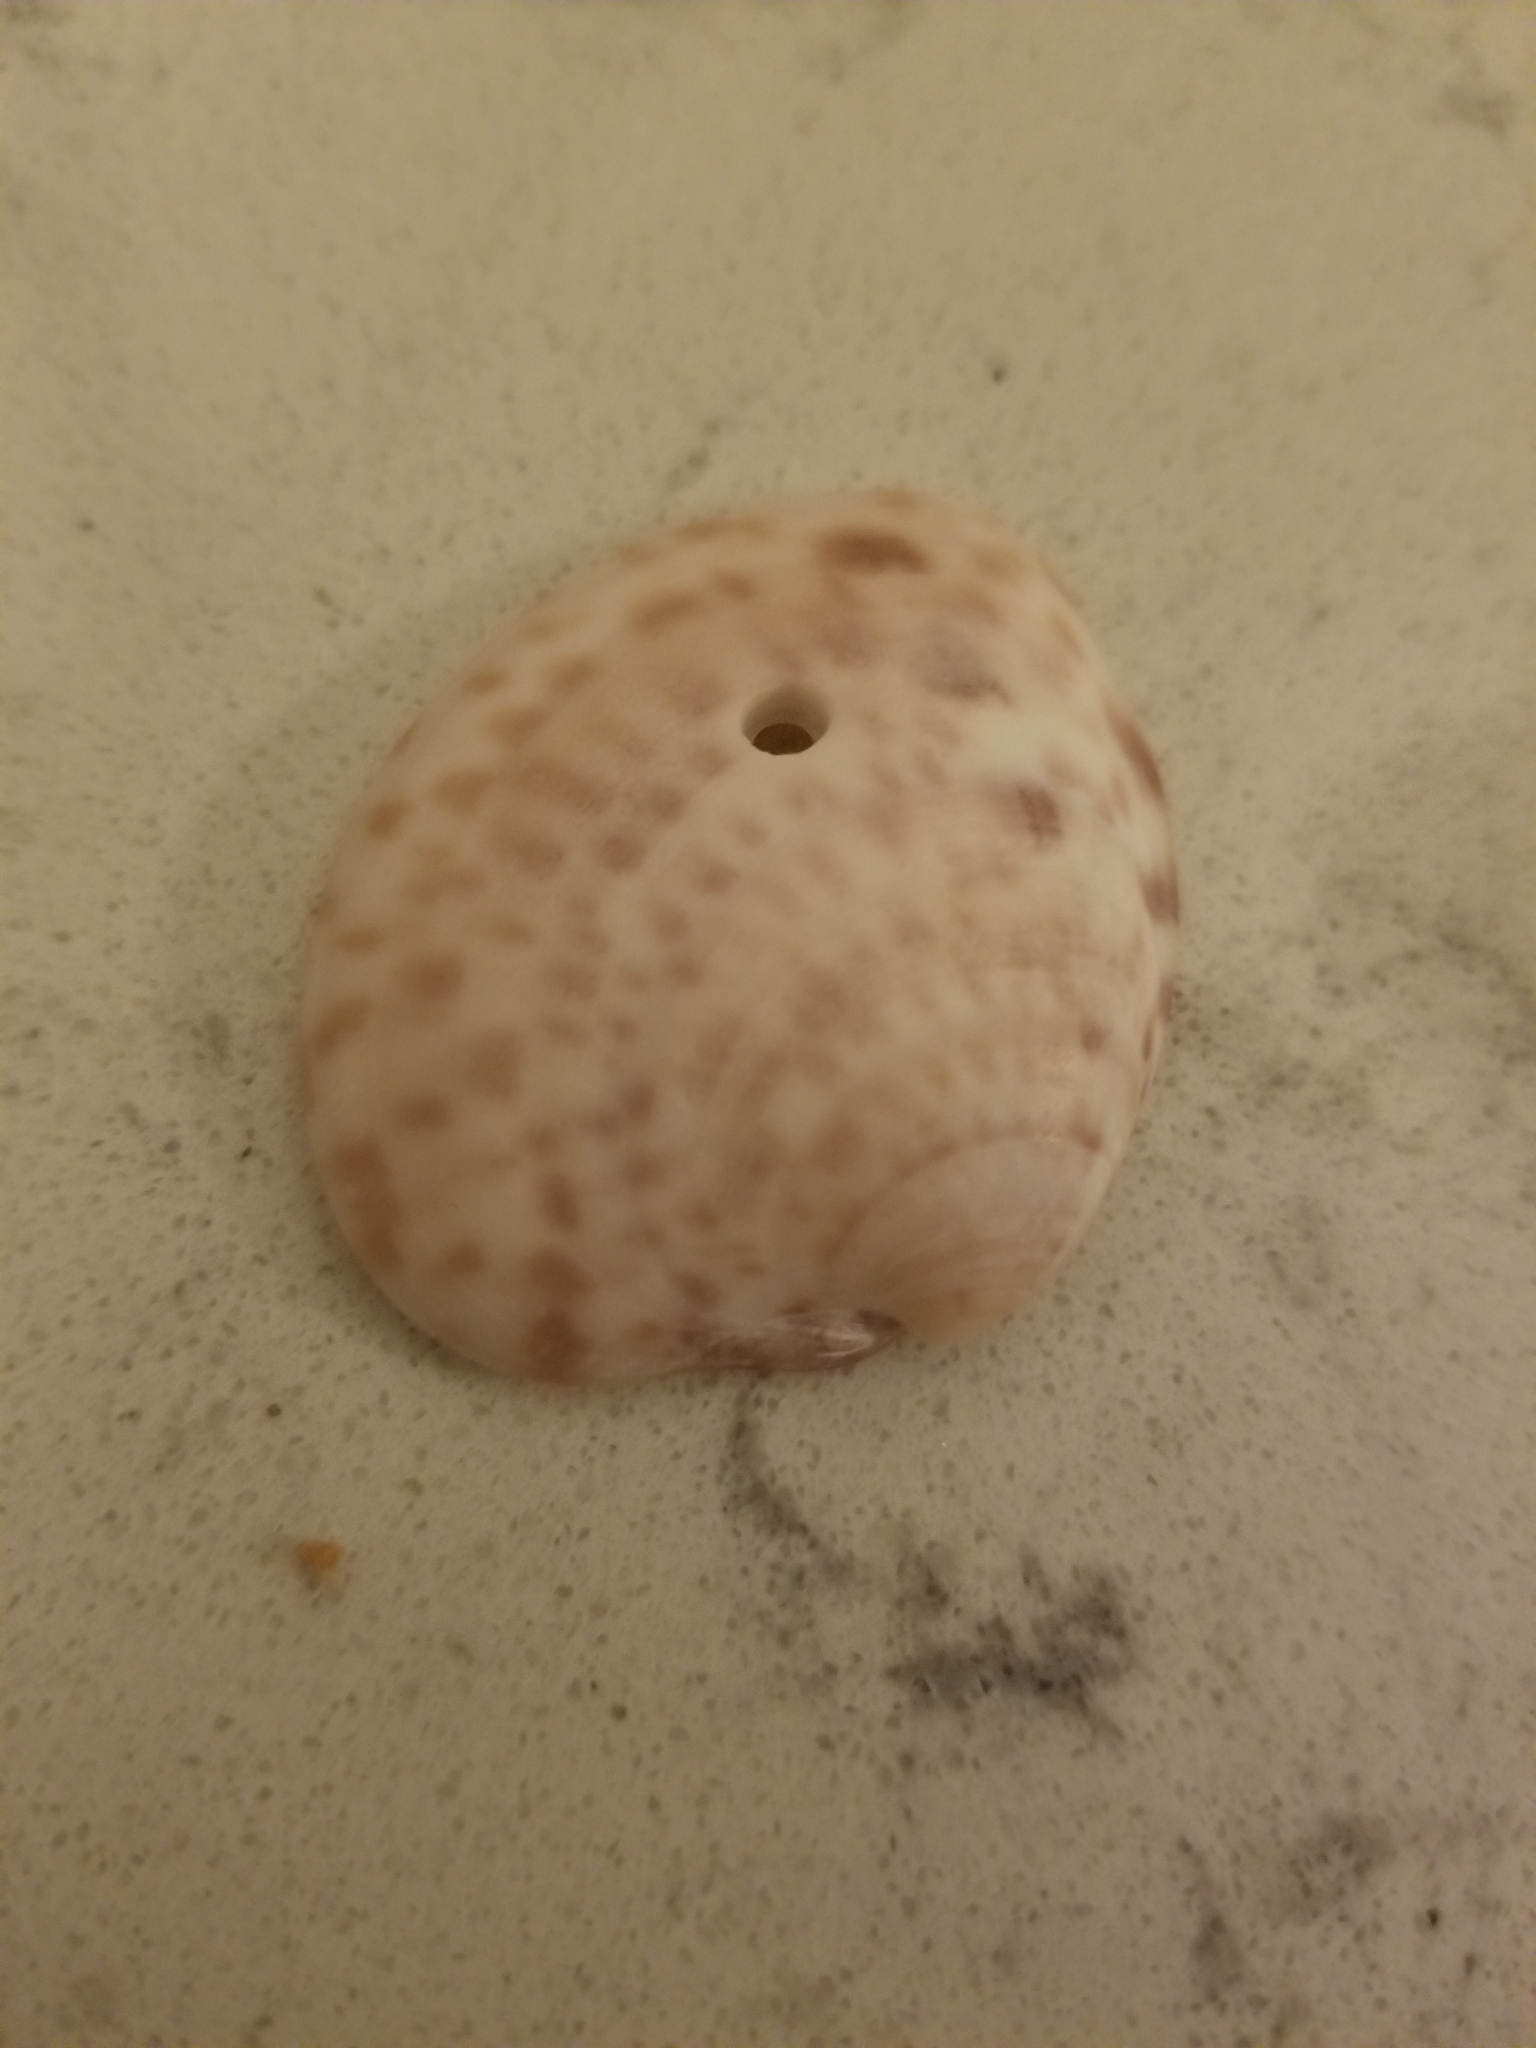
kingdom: Animalia
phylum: Mollusca
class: Bivalvia
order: Venerida
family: Veneridae
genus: Megapitaria
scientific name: Megapitaria maculata
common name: Calico clam
